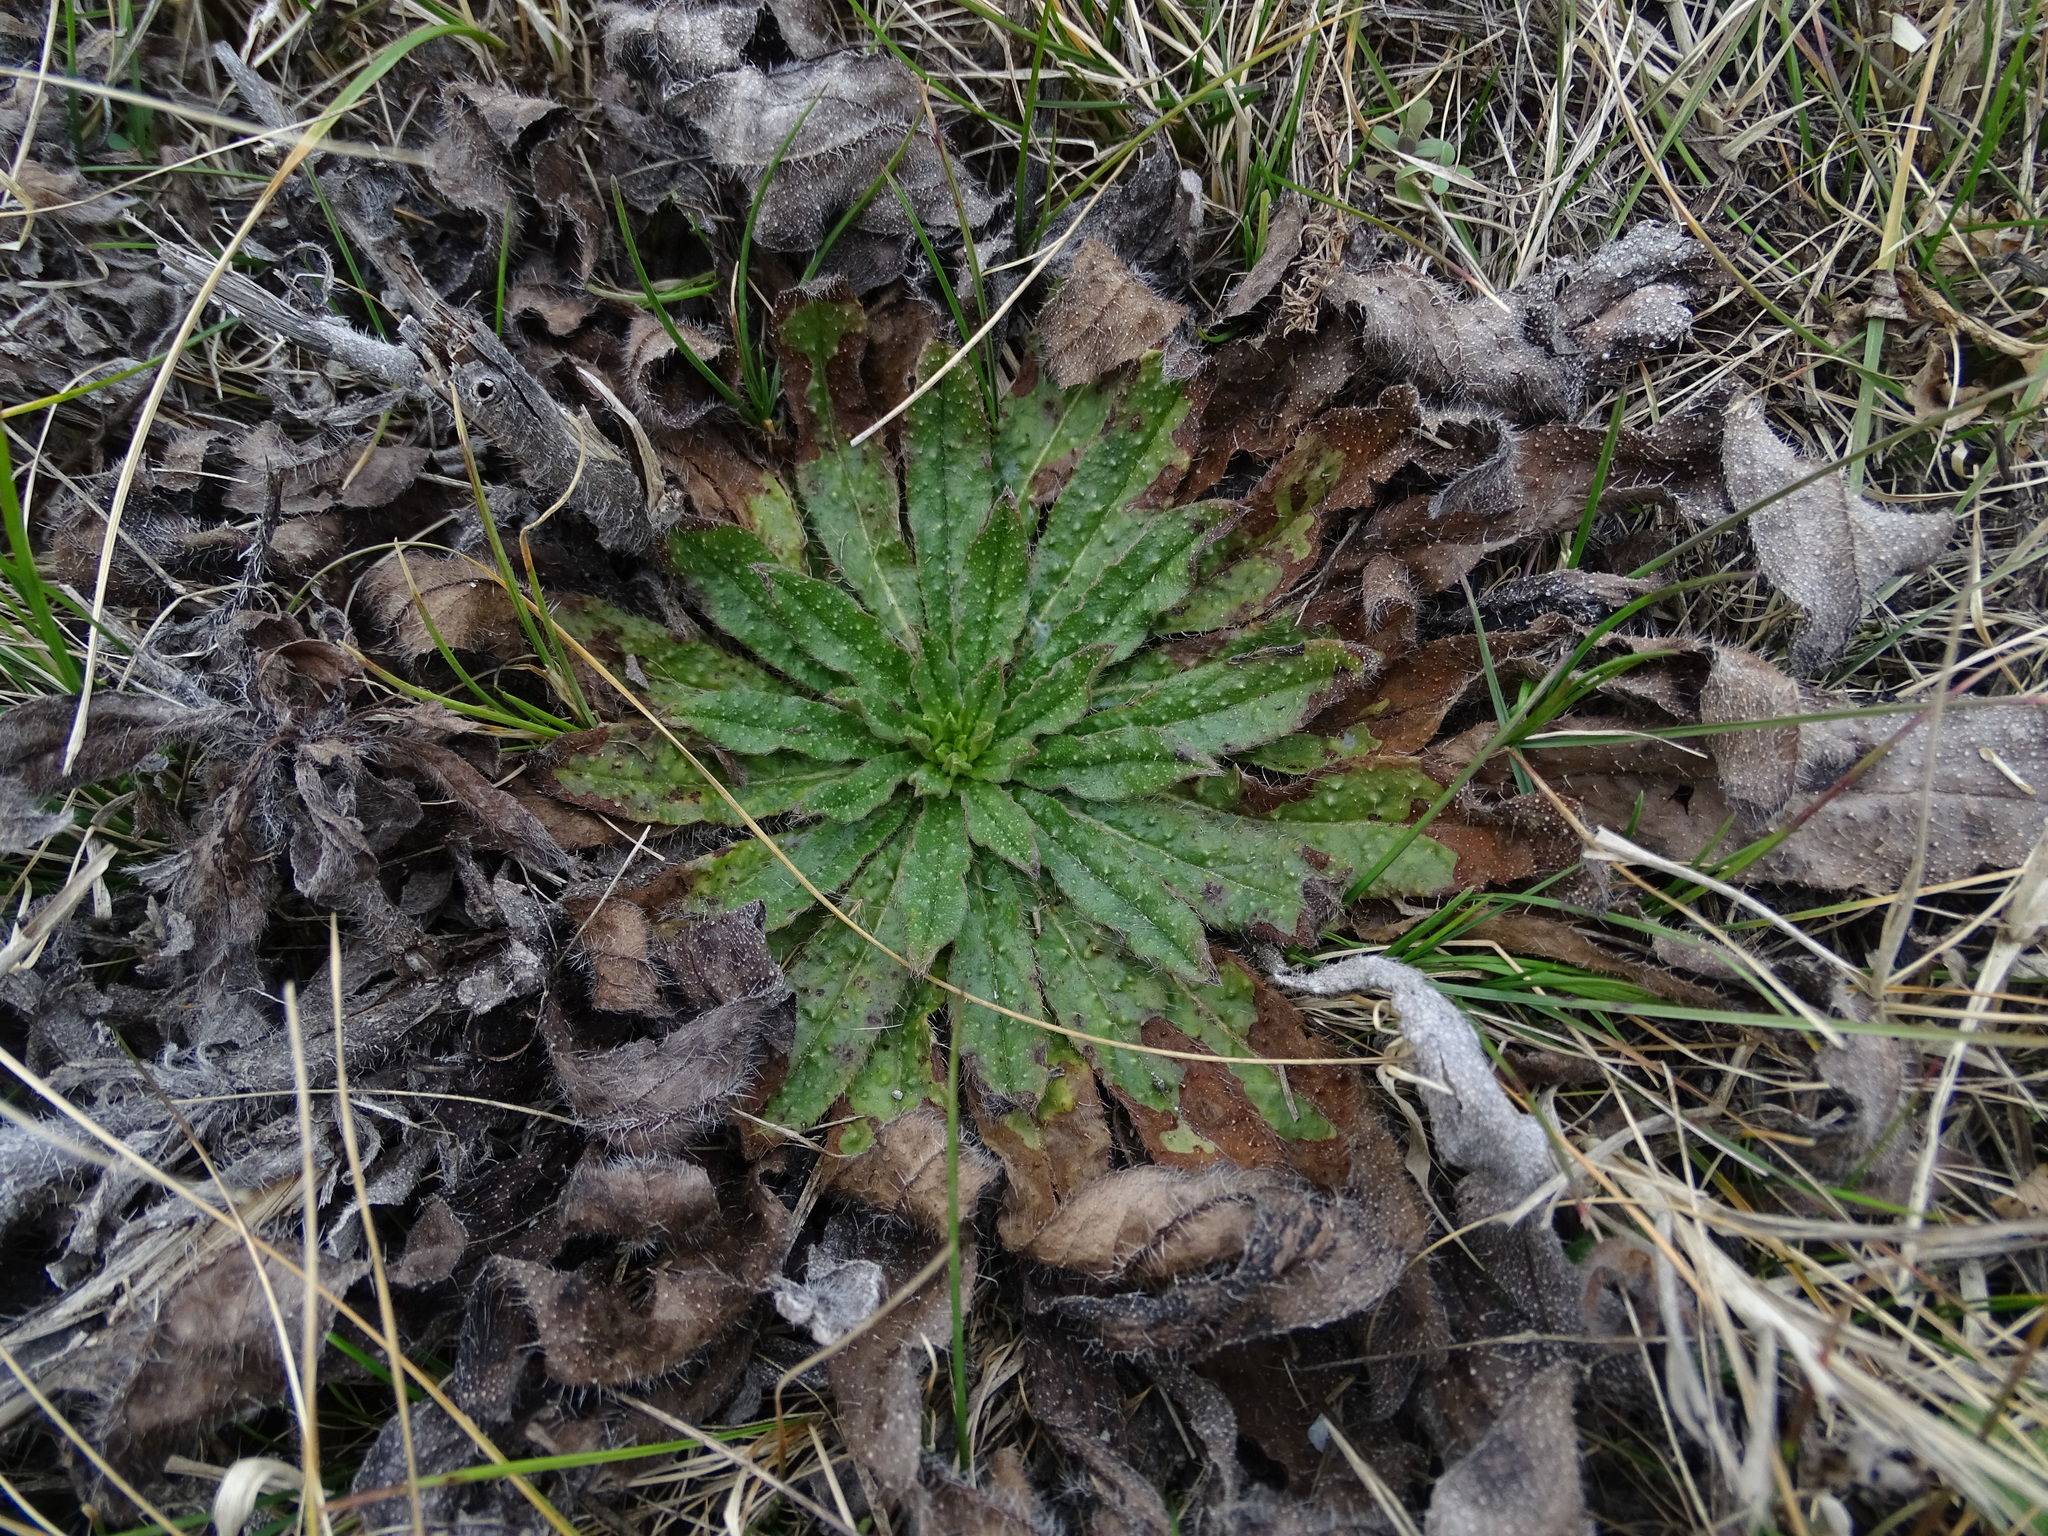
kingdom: Plantae
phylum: Tracheophyta
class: Magnoliopsida
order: Boraginales
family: Boraginaceae
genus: Echium
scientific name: Echium vulgare
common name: Common viper's bugloss
